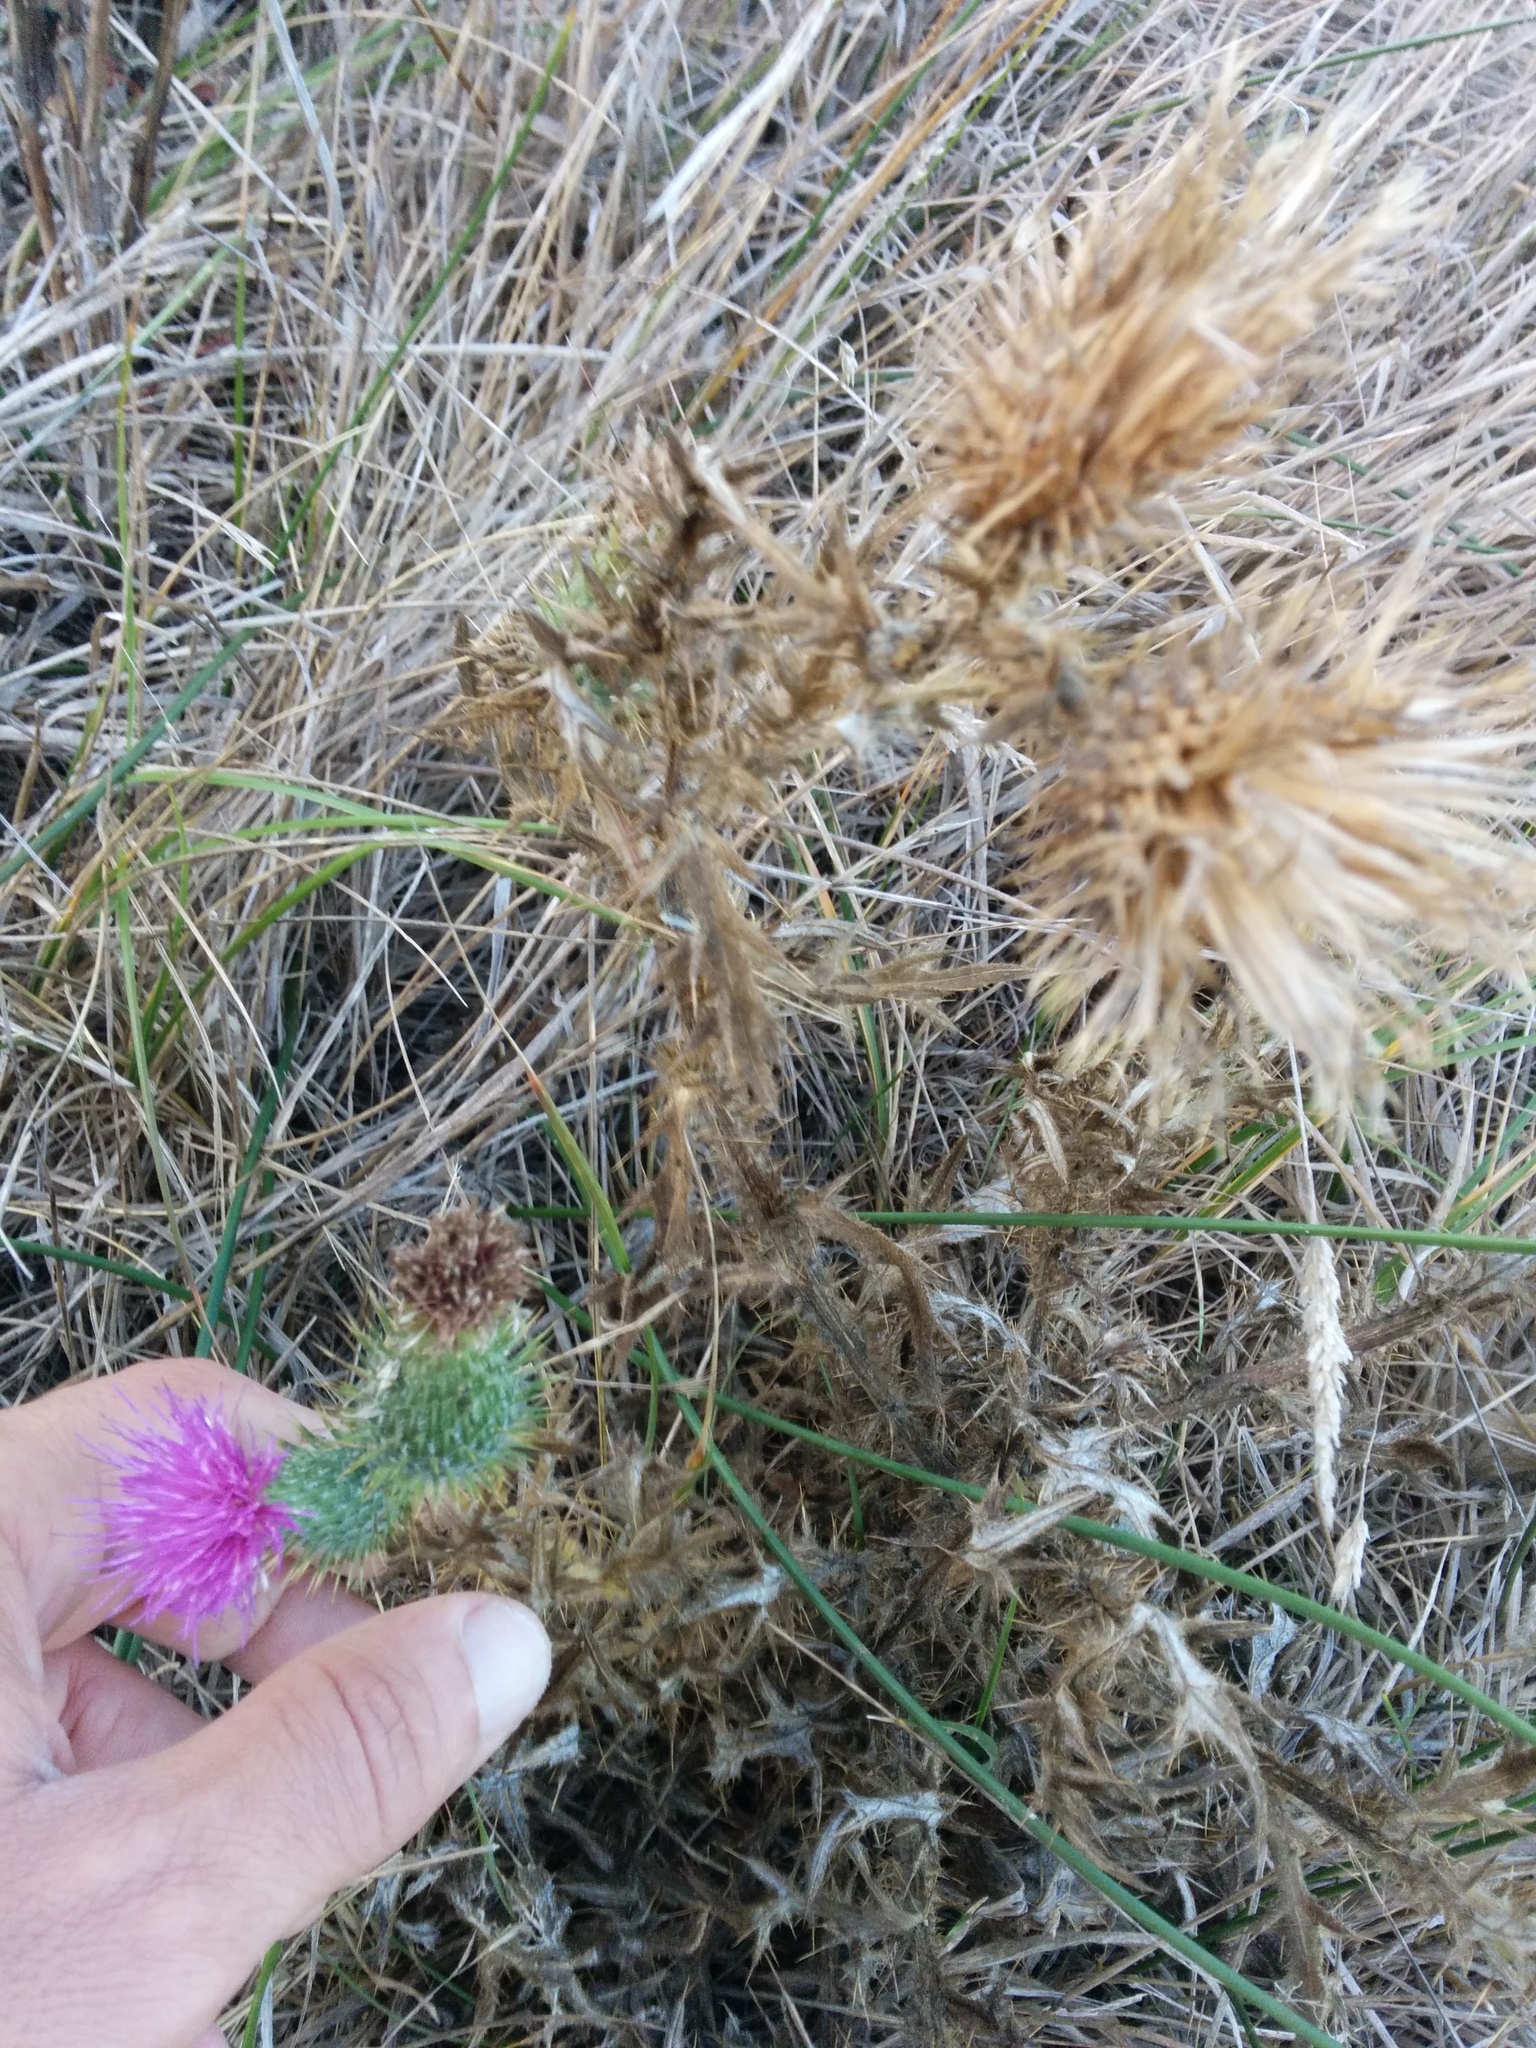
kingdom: Plantae
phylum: Tracheophyta
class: Magnoliopsida
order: Asterales
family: Asteraceae
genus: Cirsium
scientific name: Cirsium vulgare
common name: Bull thistle
